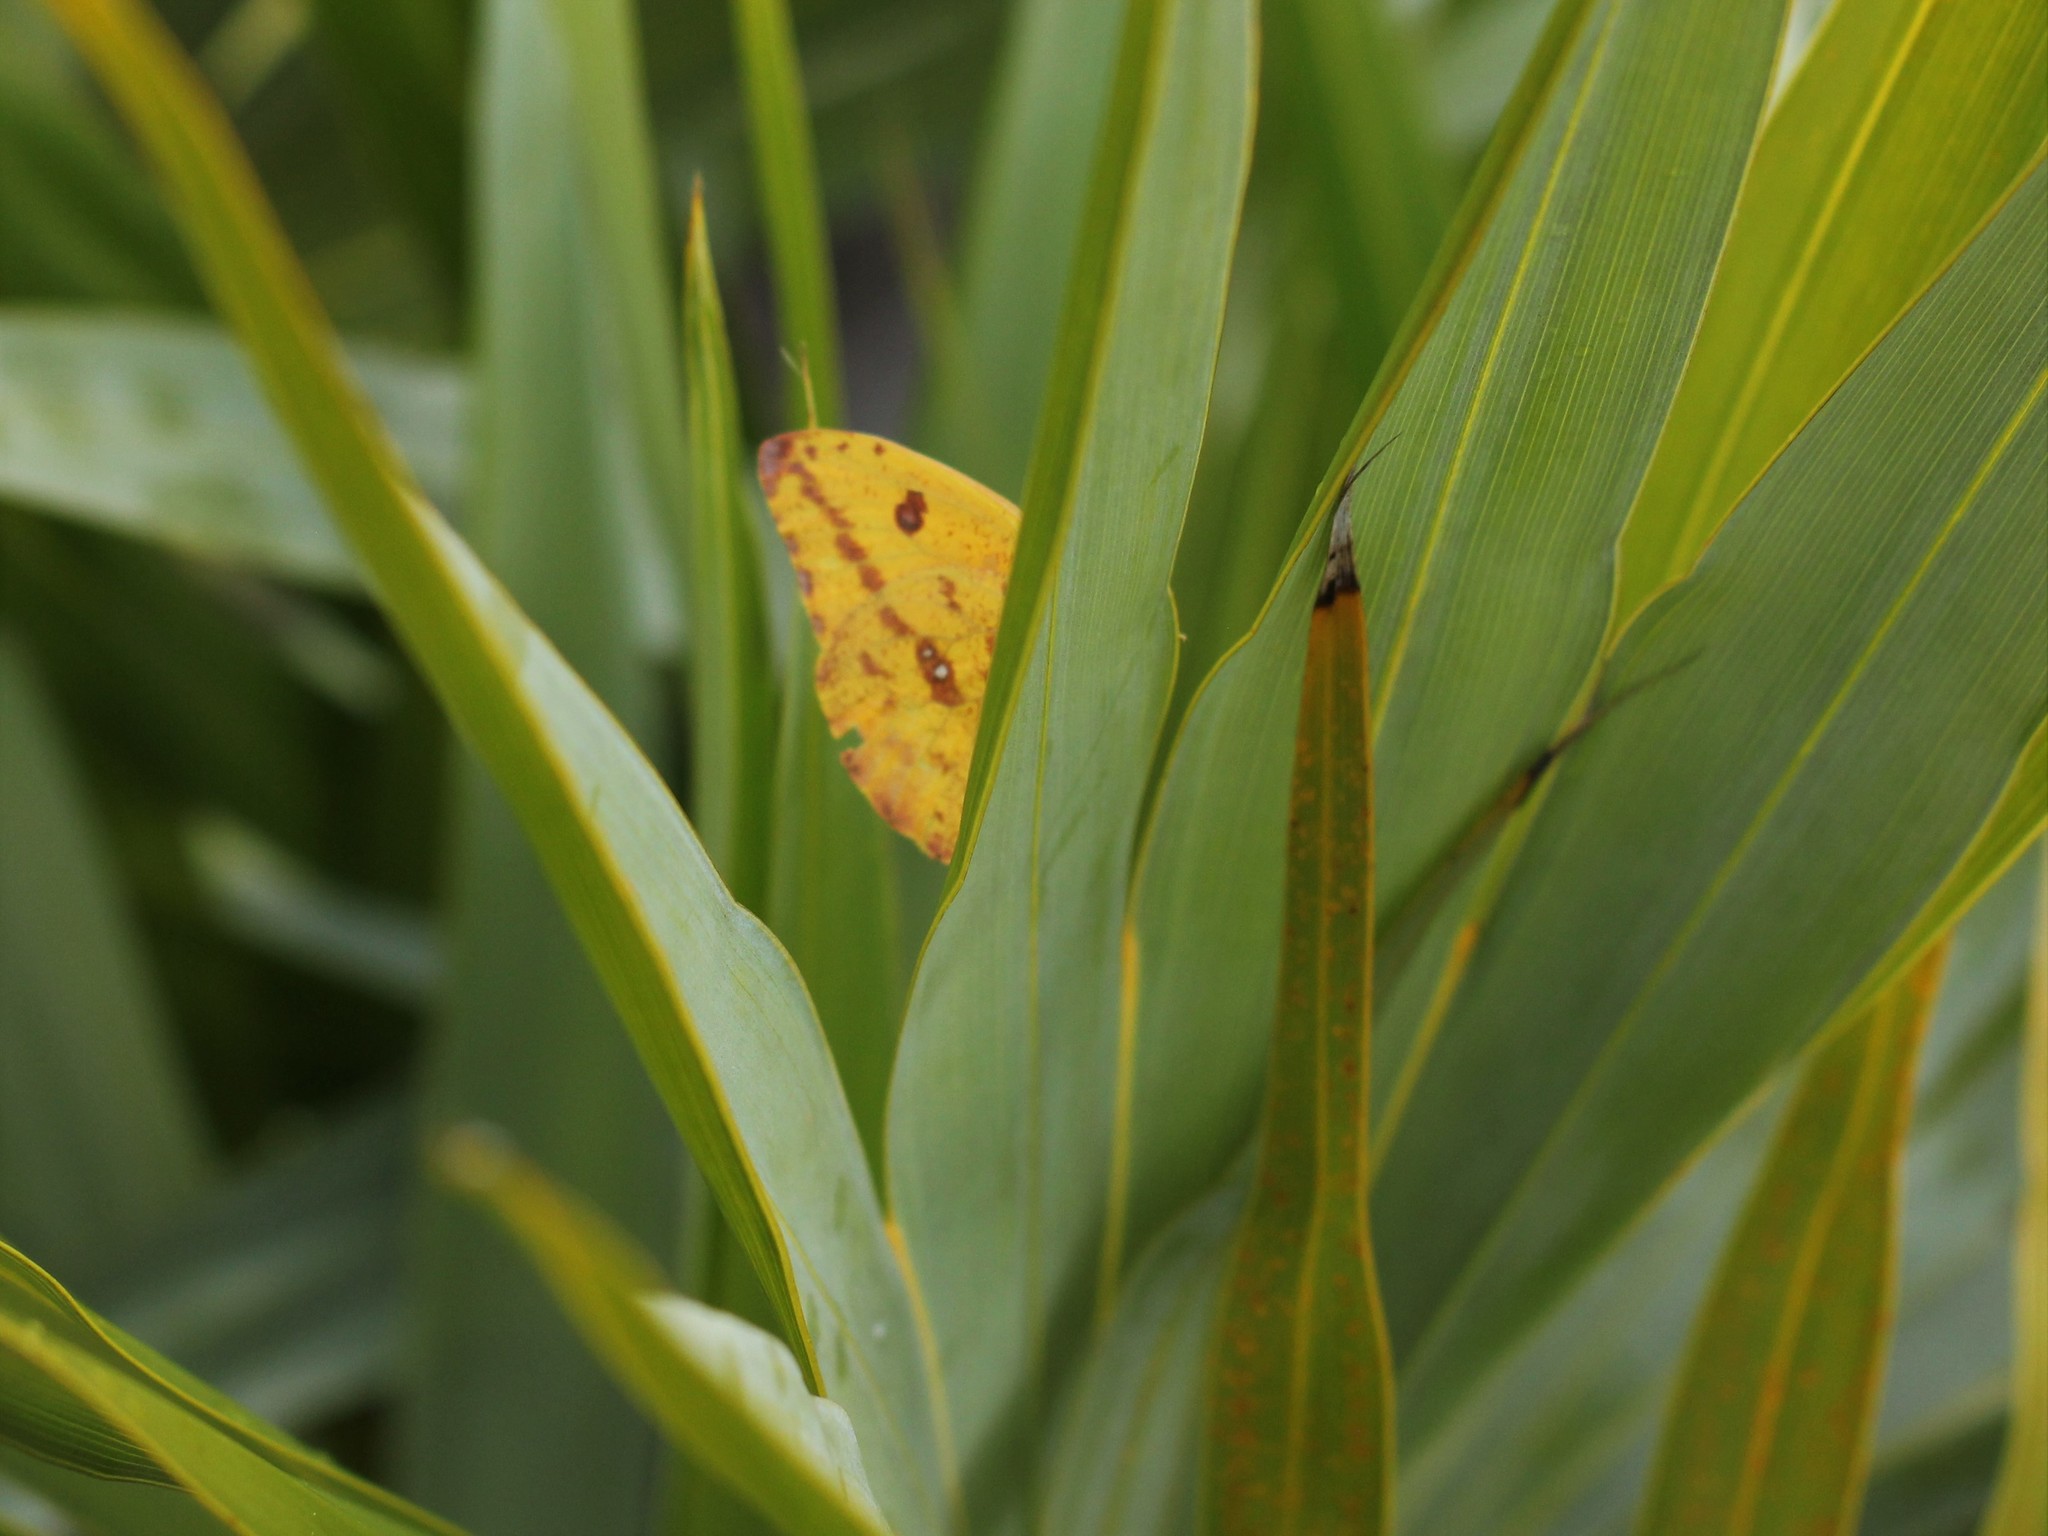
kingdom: Animalia
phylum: Arthropoda
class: Insecta
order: Lepidoptera
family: Pieridae
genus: Phoebis
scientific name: Phoebis agarithe
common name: Large orange sulphur
